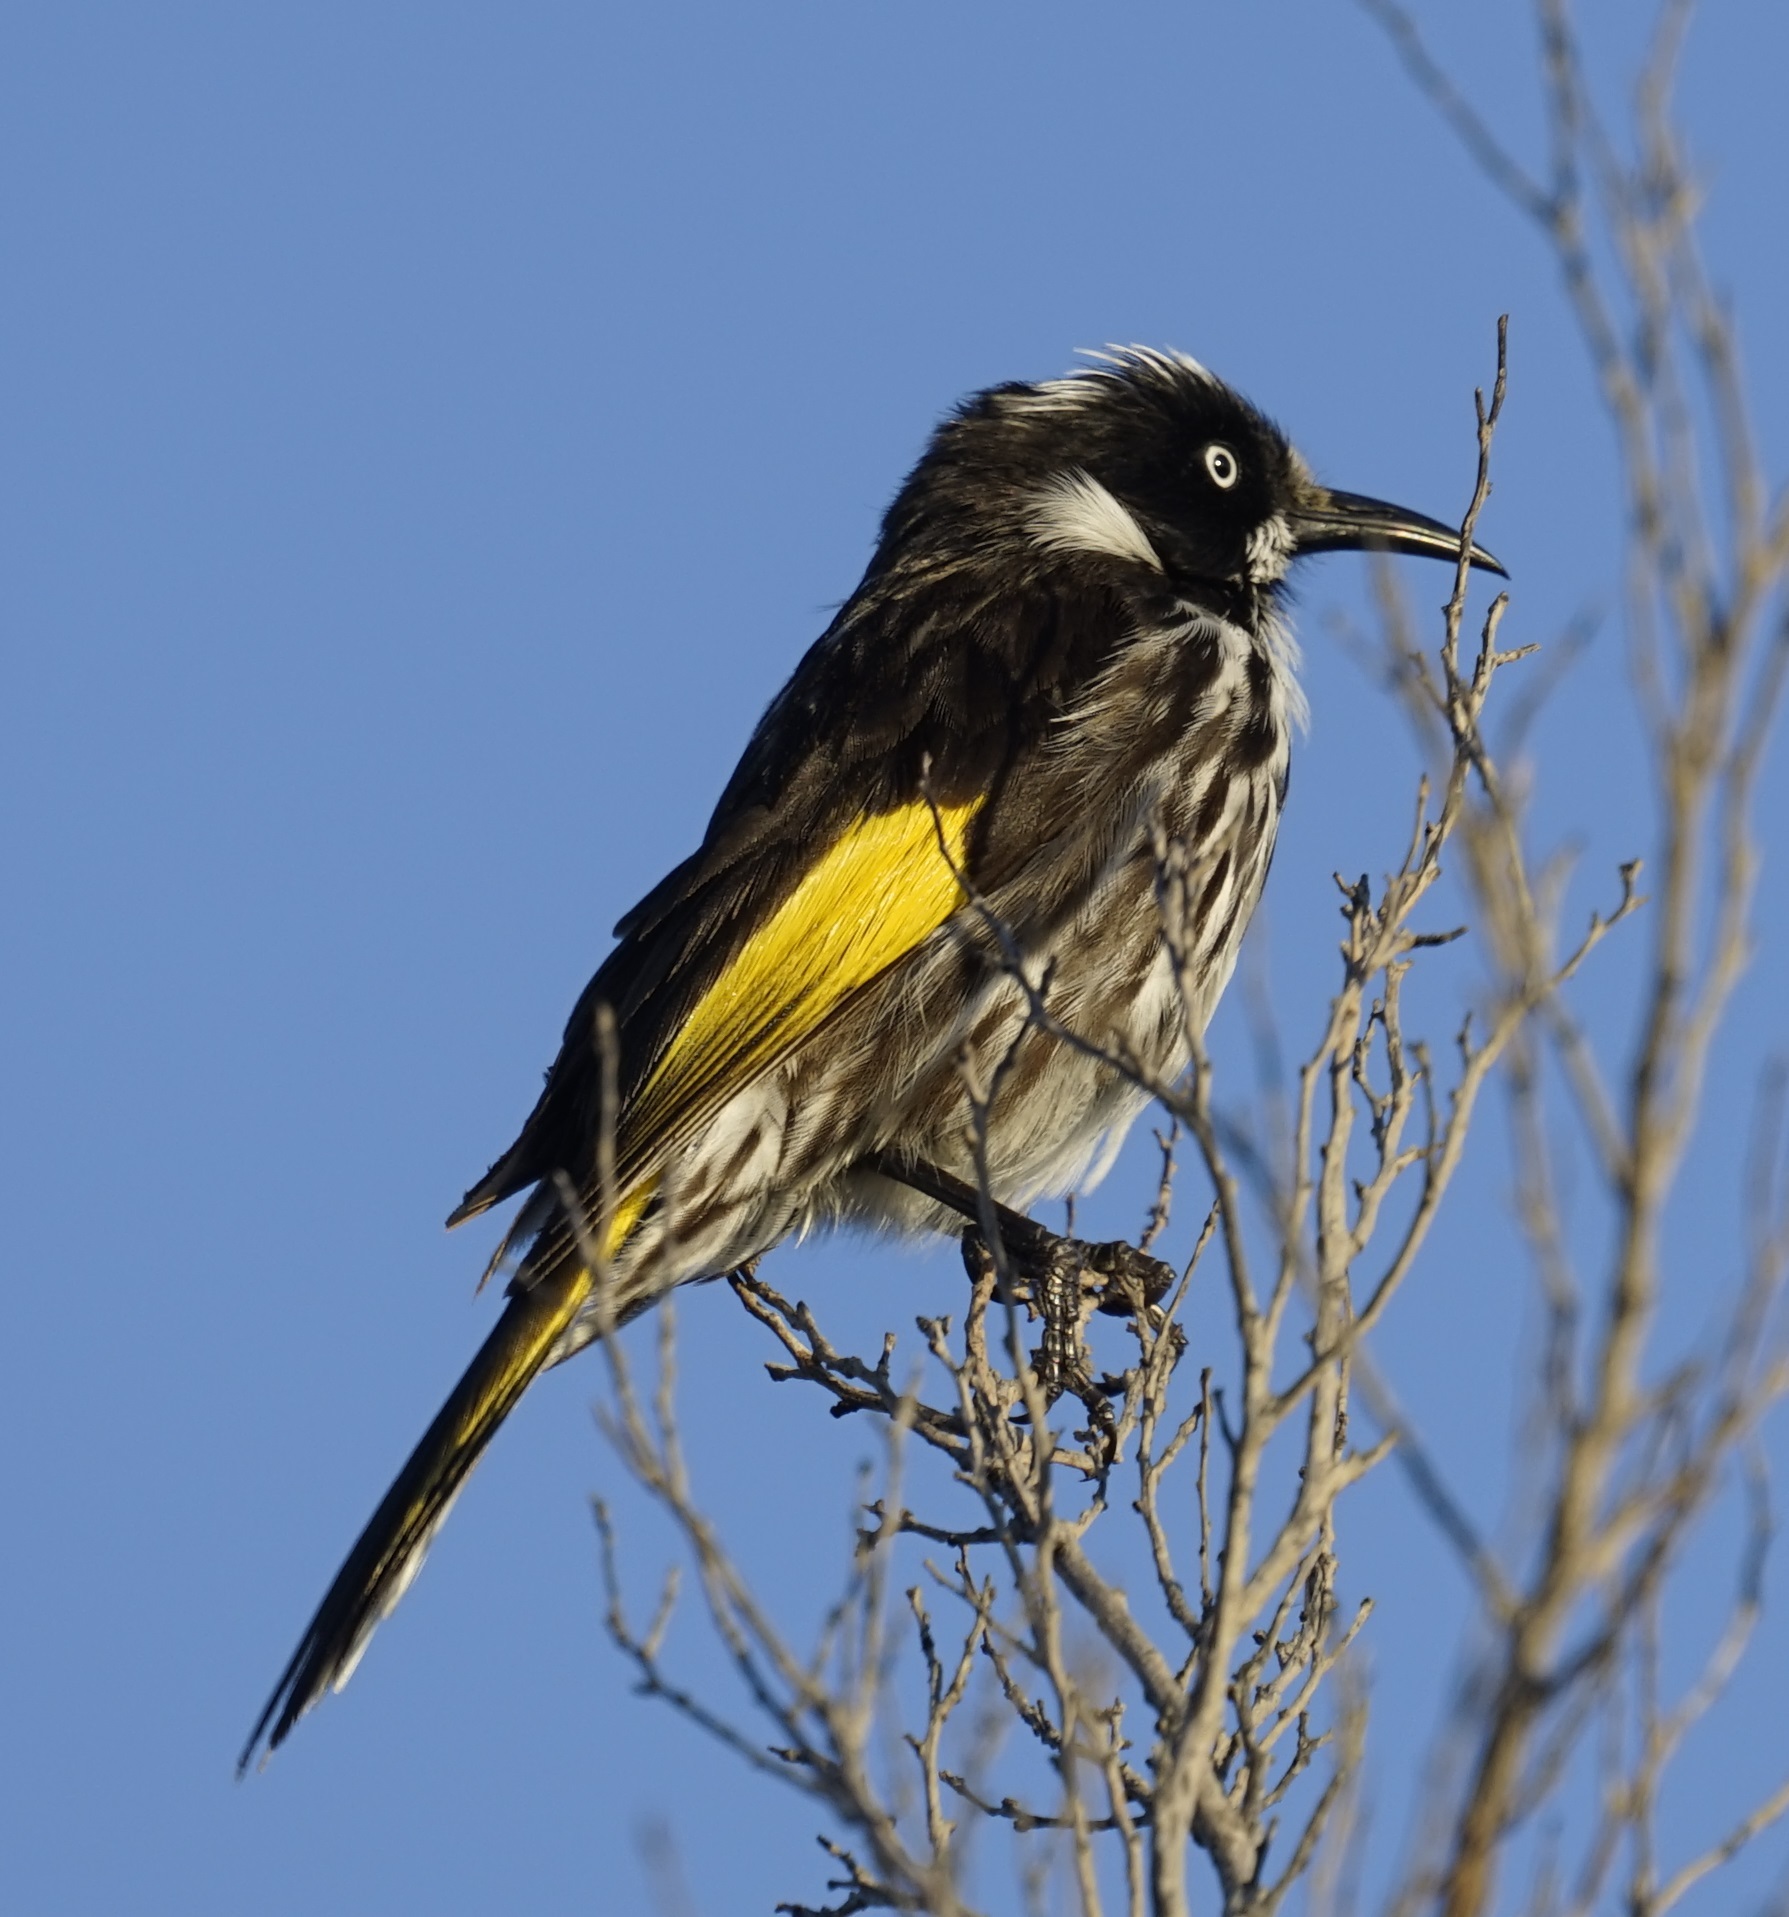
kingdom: Animalia
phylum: Chordata
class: Aves
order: Passeriformes
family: Meliphagidae
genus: Phylidonyris
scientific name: Phylidonyris novaehollandiae
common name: New holland honeyeater
